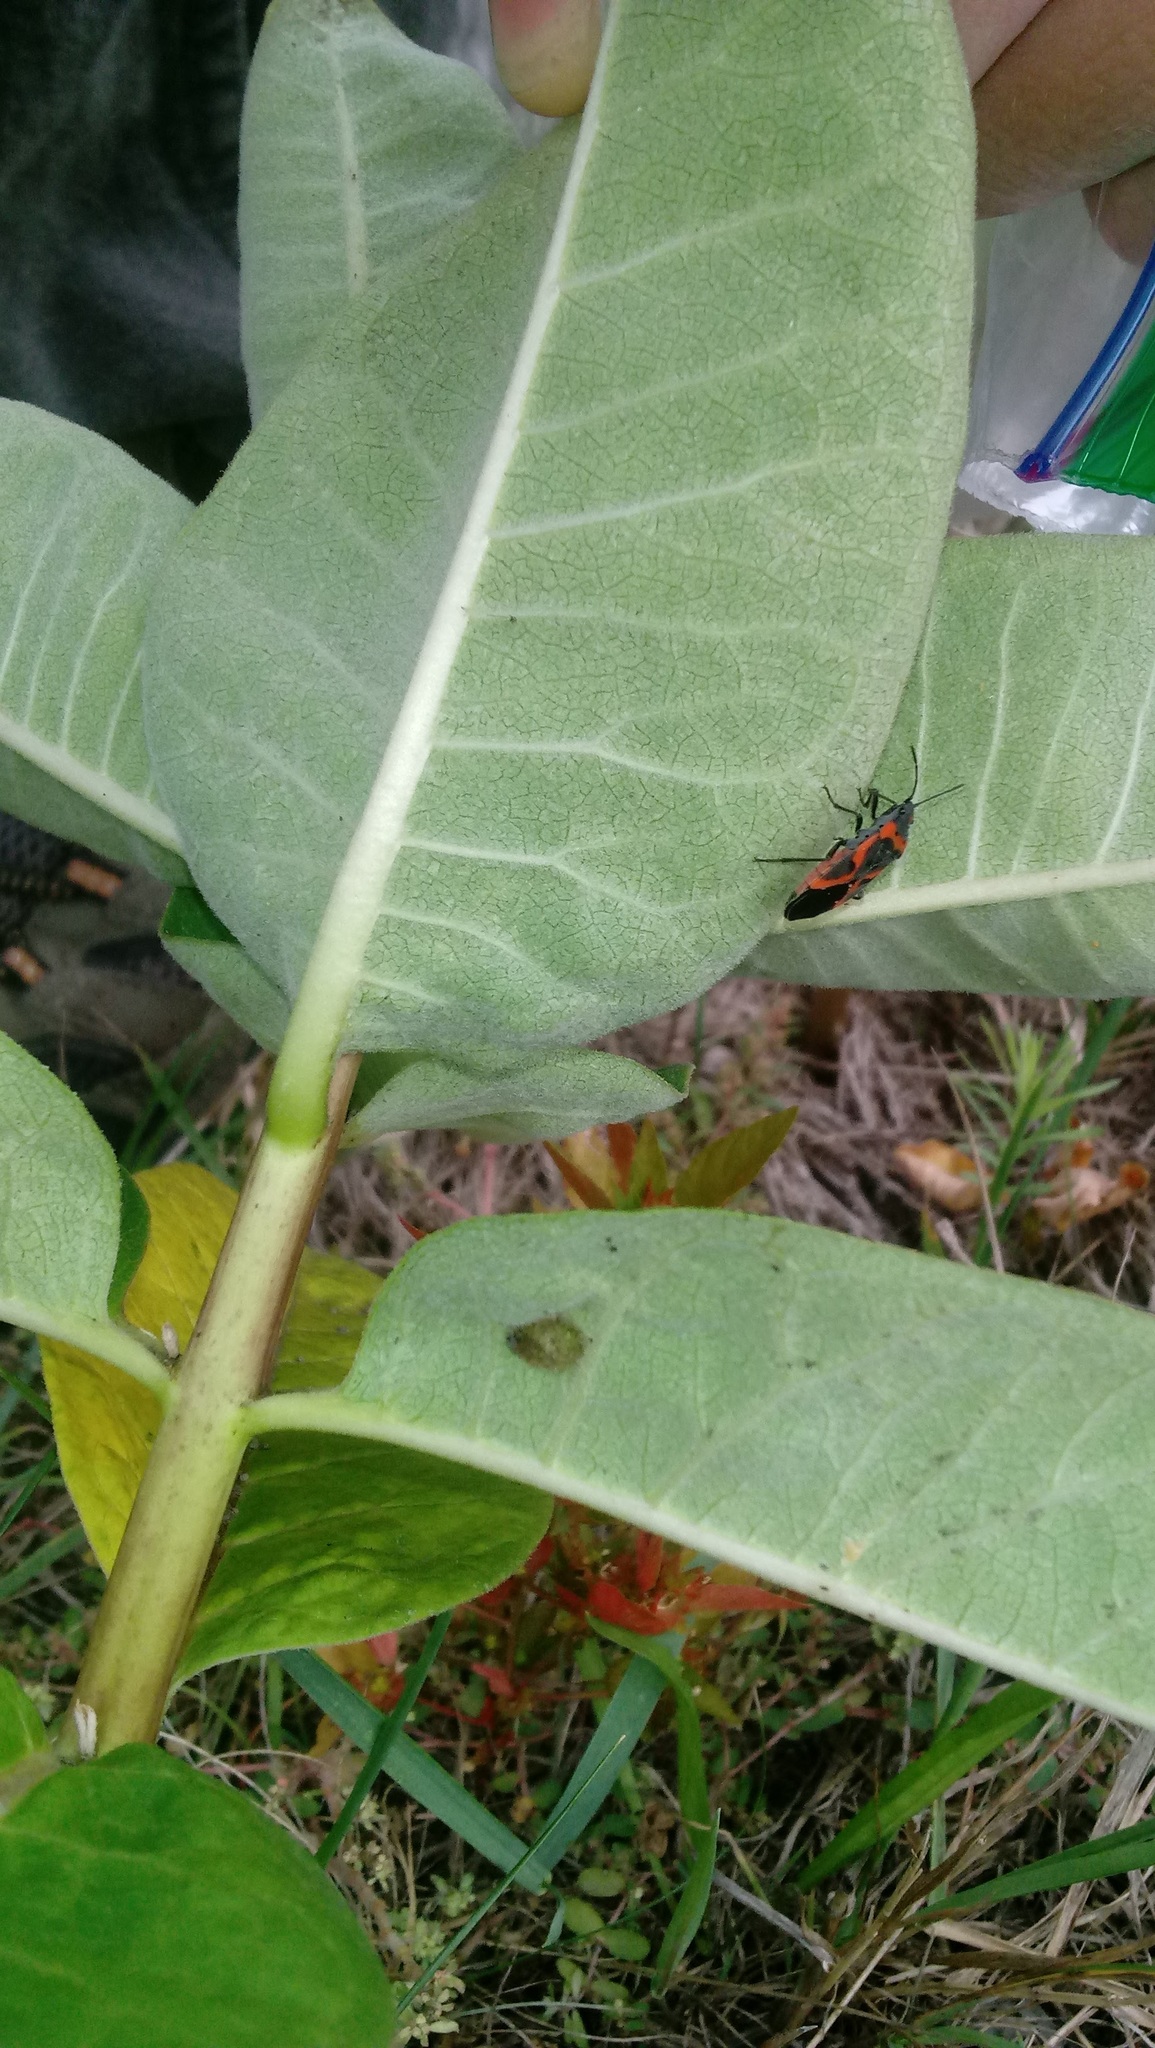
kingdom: Plantae
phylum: Tracheophyta
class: Magnoliopsida
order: Gentianales
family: Apocynaceae
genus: Asclepias
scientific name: Asclepias syriaca
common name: Common milkweed
